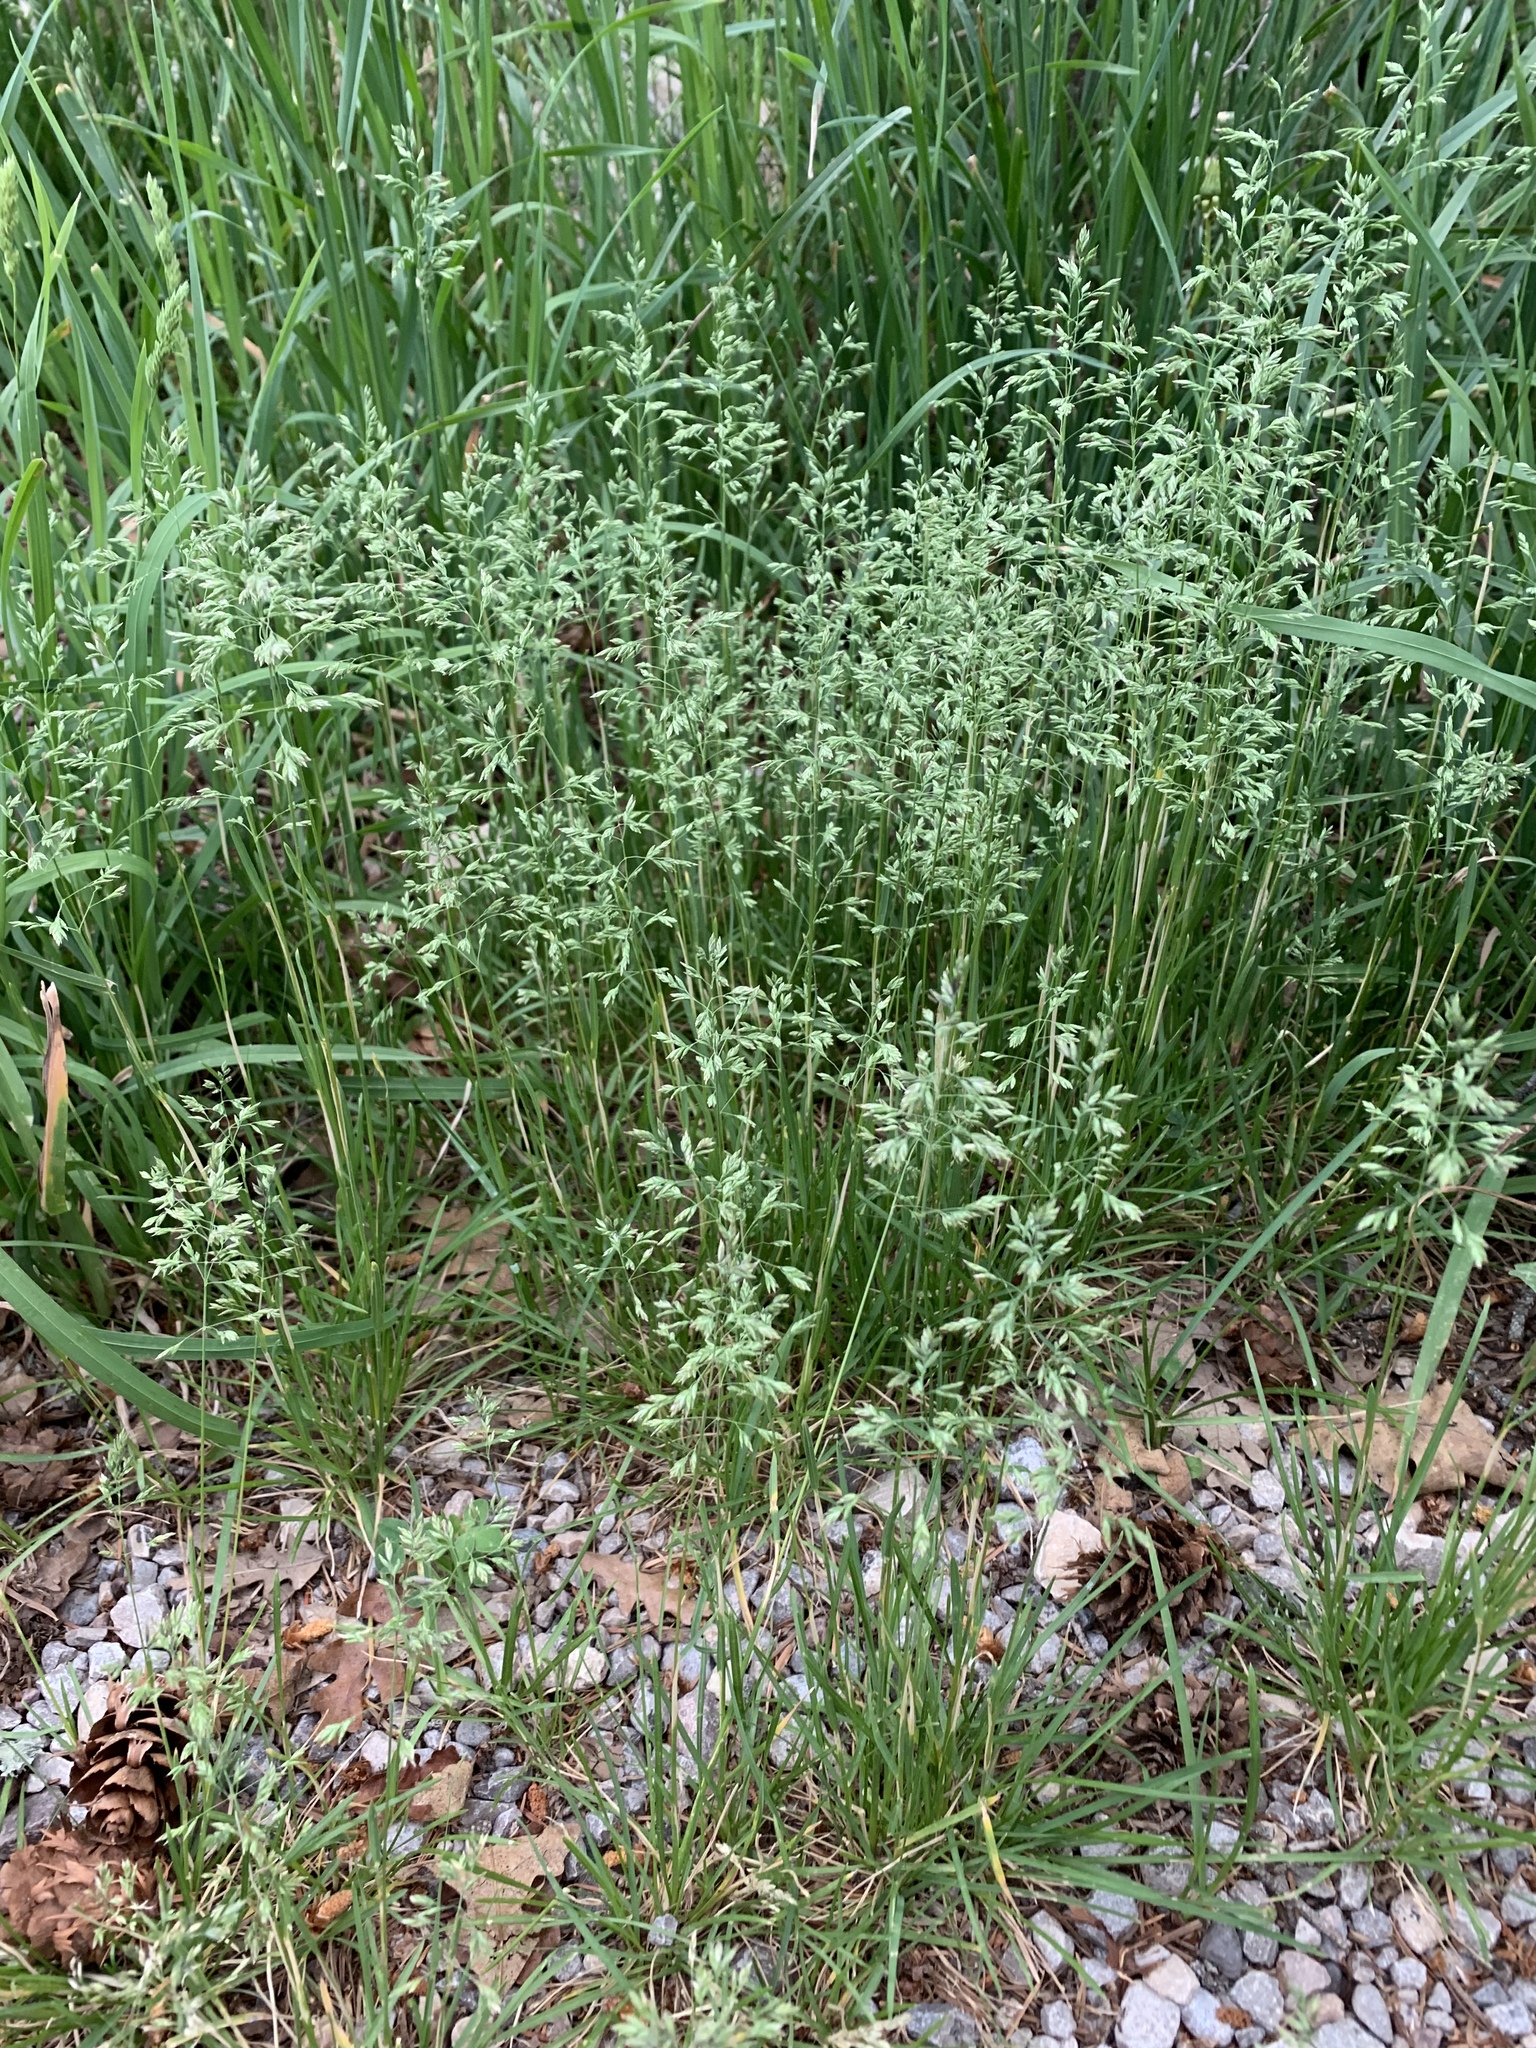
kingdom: Plantae
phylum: Tracheophyta
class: Liliopsida
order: Poales
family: Poaceae
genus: Poa
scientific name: Poa pratensis
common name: Kentucky bluegrass
